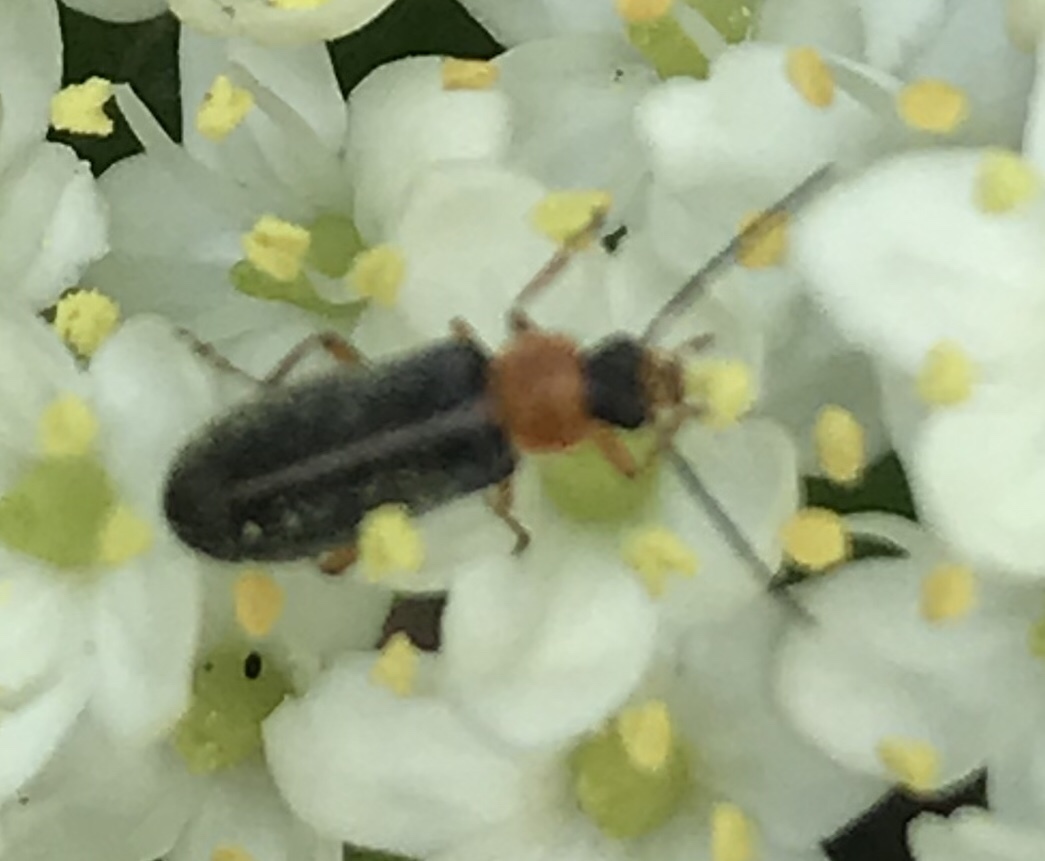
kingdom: Animalia
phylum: Arthropoda
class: Insecta
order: Coleoptera
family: Melandryidae
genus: Osphya
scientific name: Osphya varians
